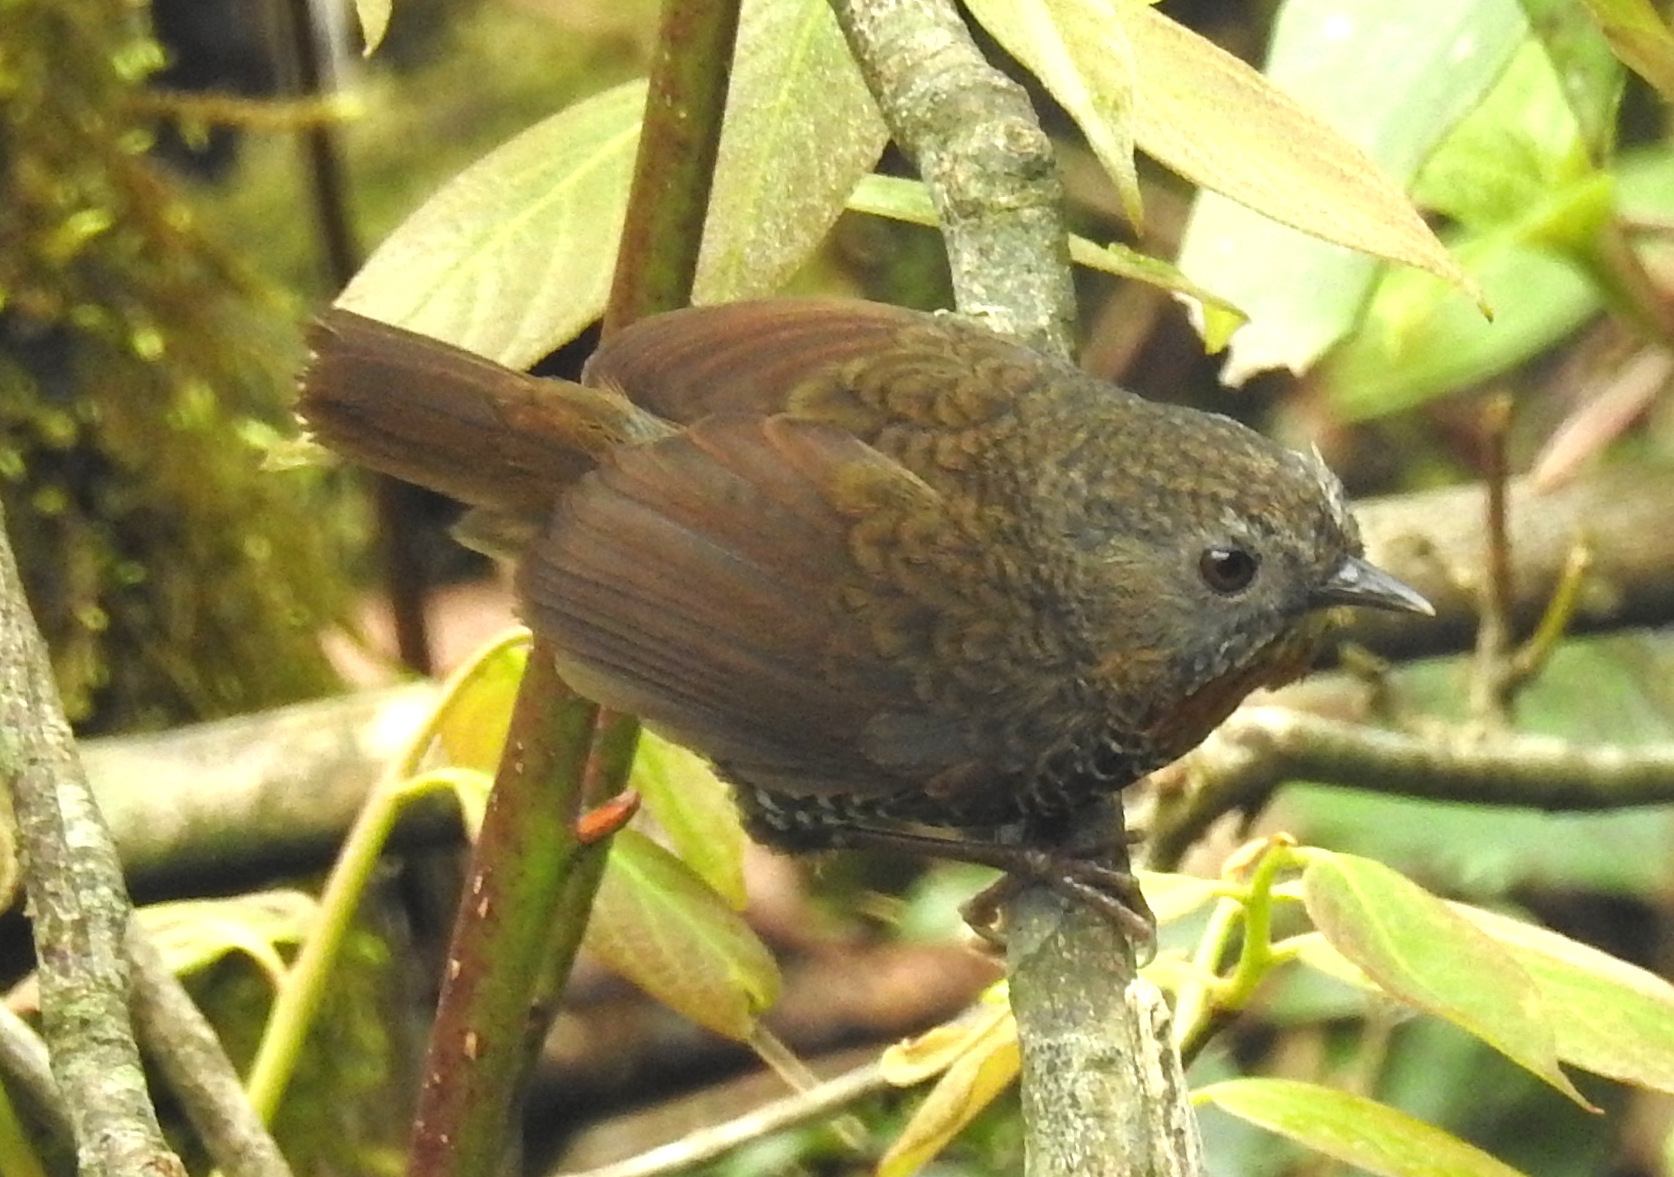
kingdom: Animalia
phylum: Chordata
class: Aves
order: Passeriformes
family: Timaliidae
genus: Spelaeornis
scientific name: Spelaeornis badeigularis
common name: Rusty-throated wren-babbler
